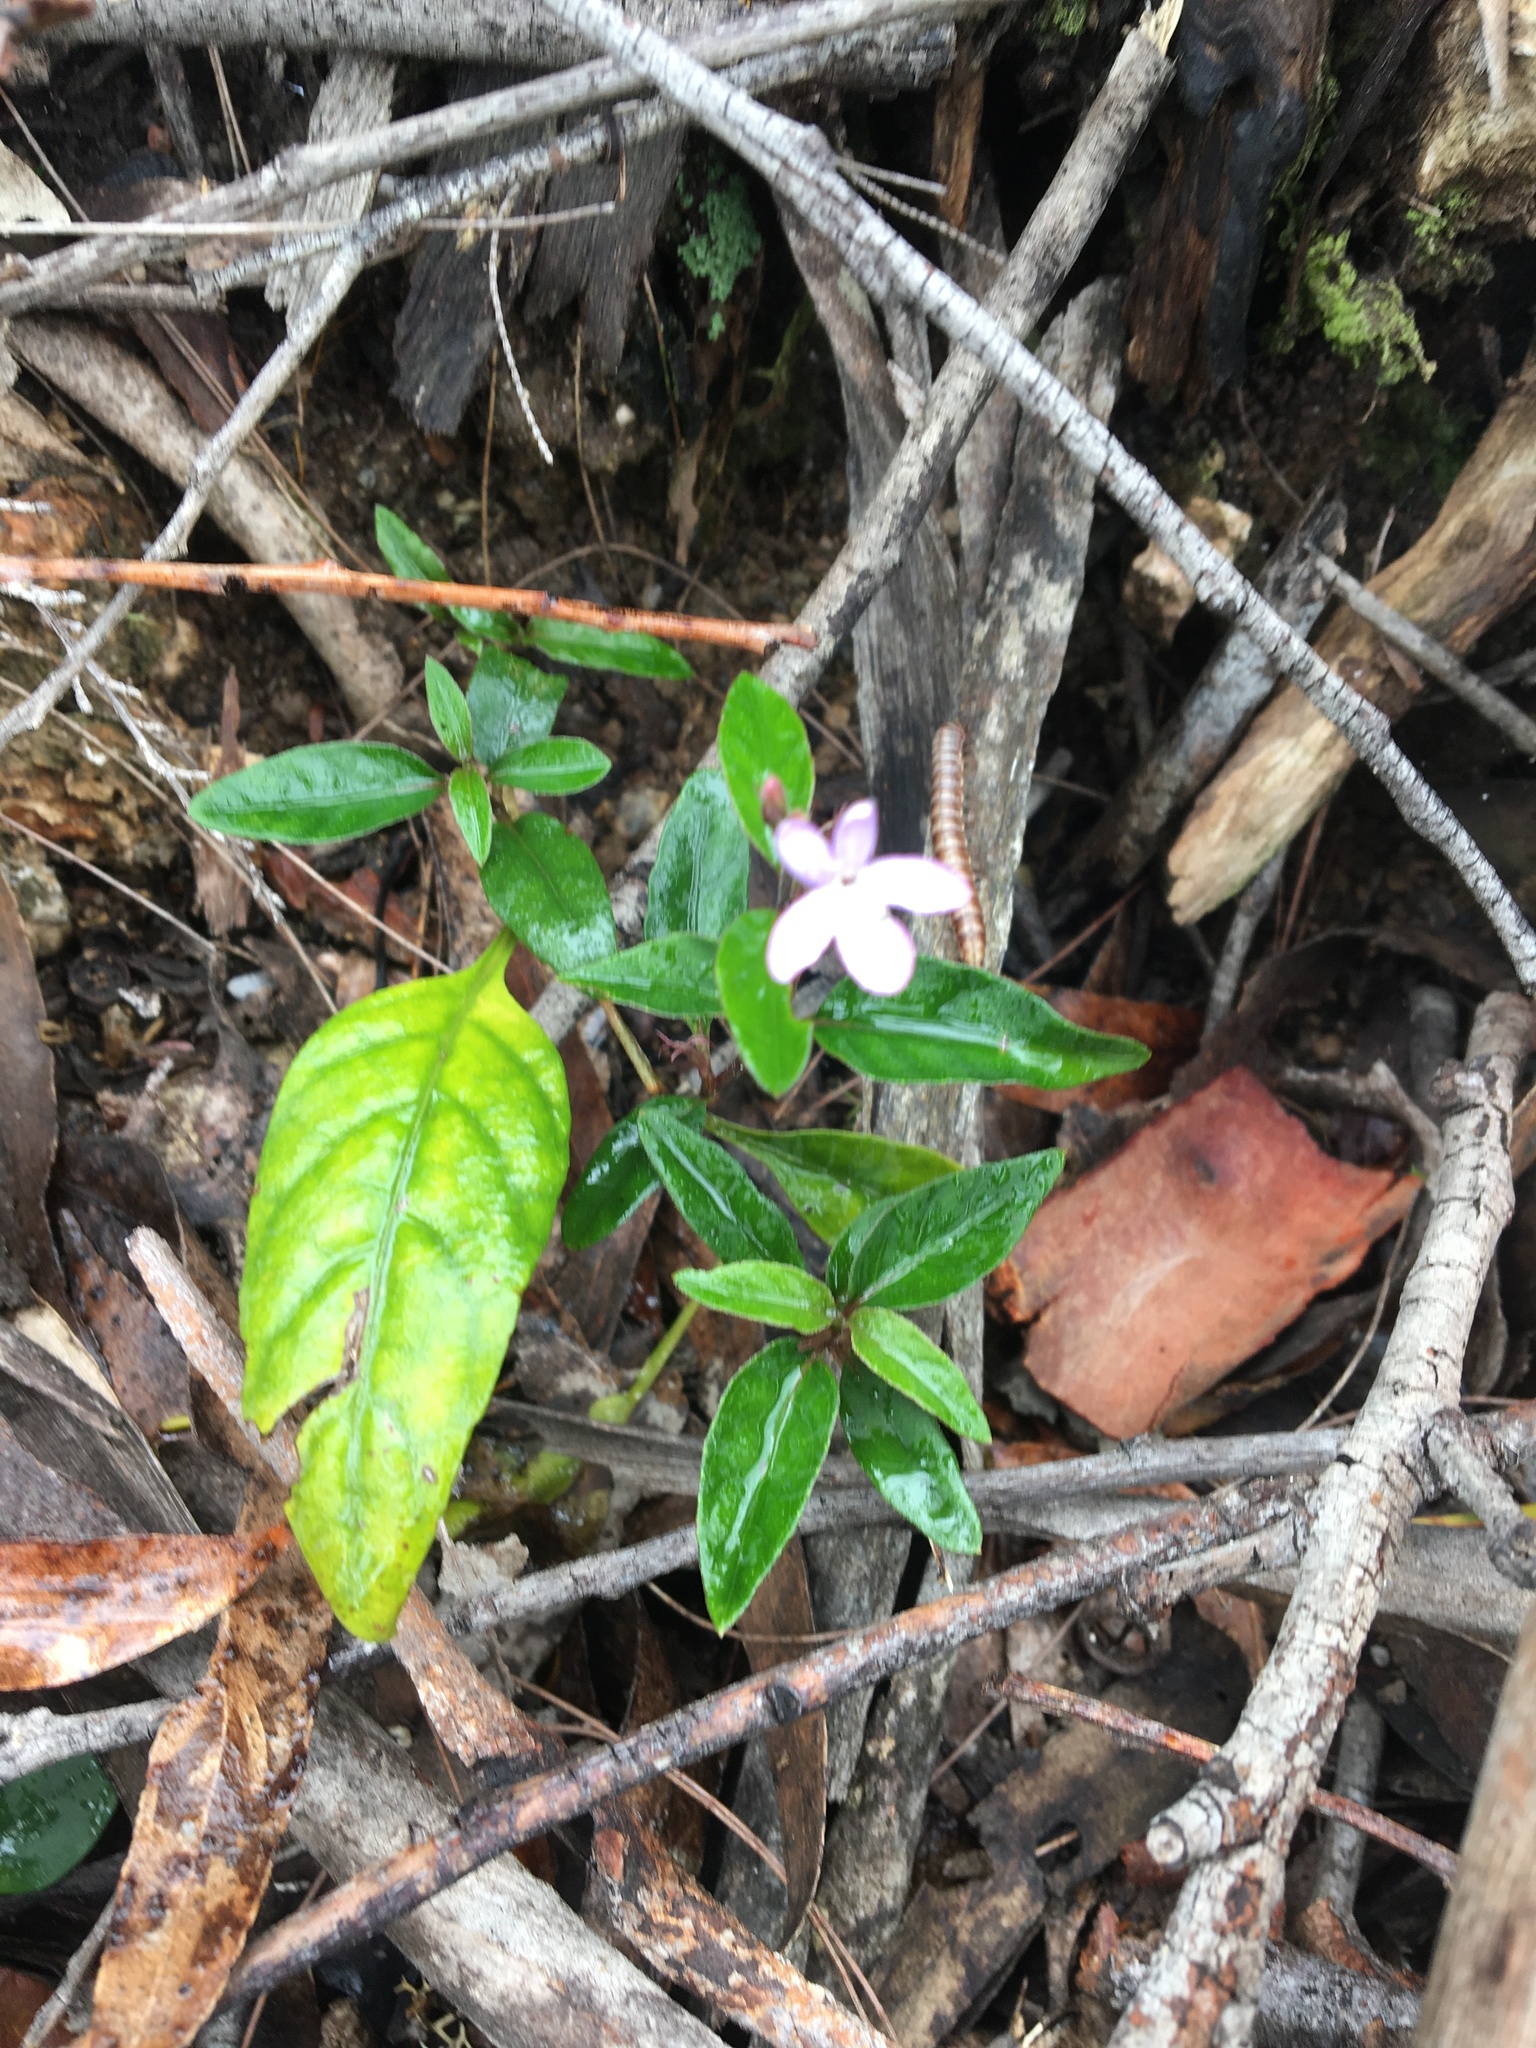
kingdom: Plantae
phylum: Tracheophyta
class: Magnoliopsida
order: Lamiales
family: Acanthaceae
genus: Pseuderanthemum
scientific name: Pseuderanthemum variabile
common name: Night and afternoon
